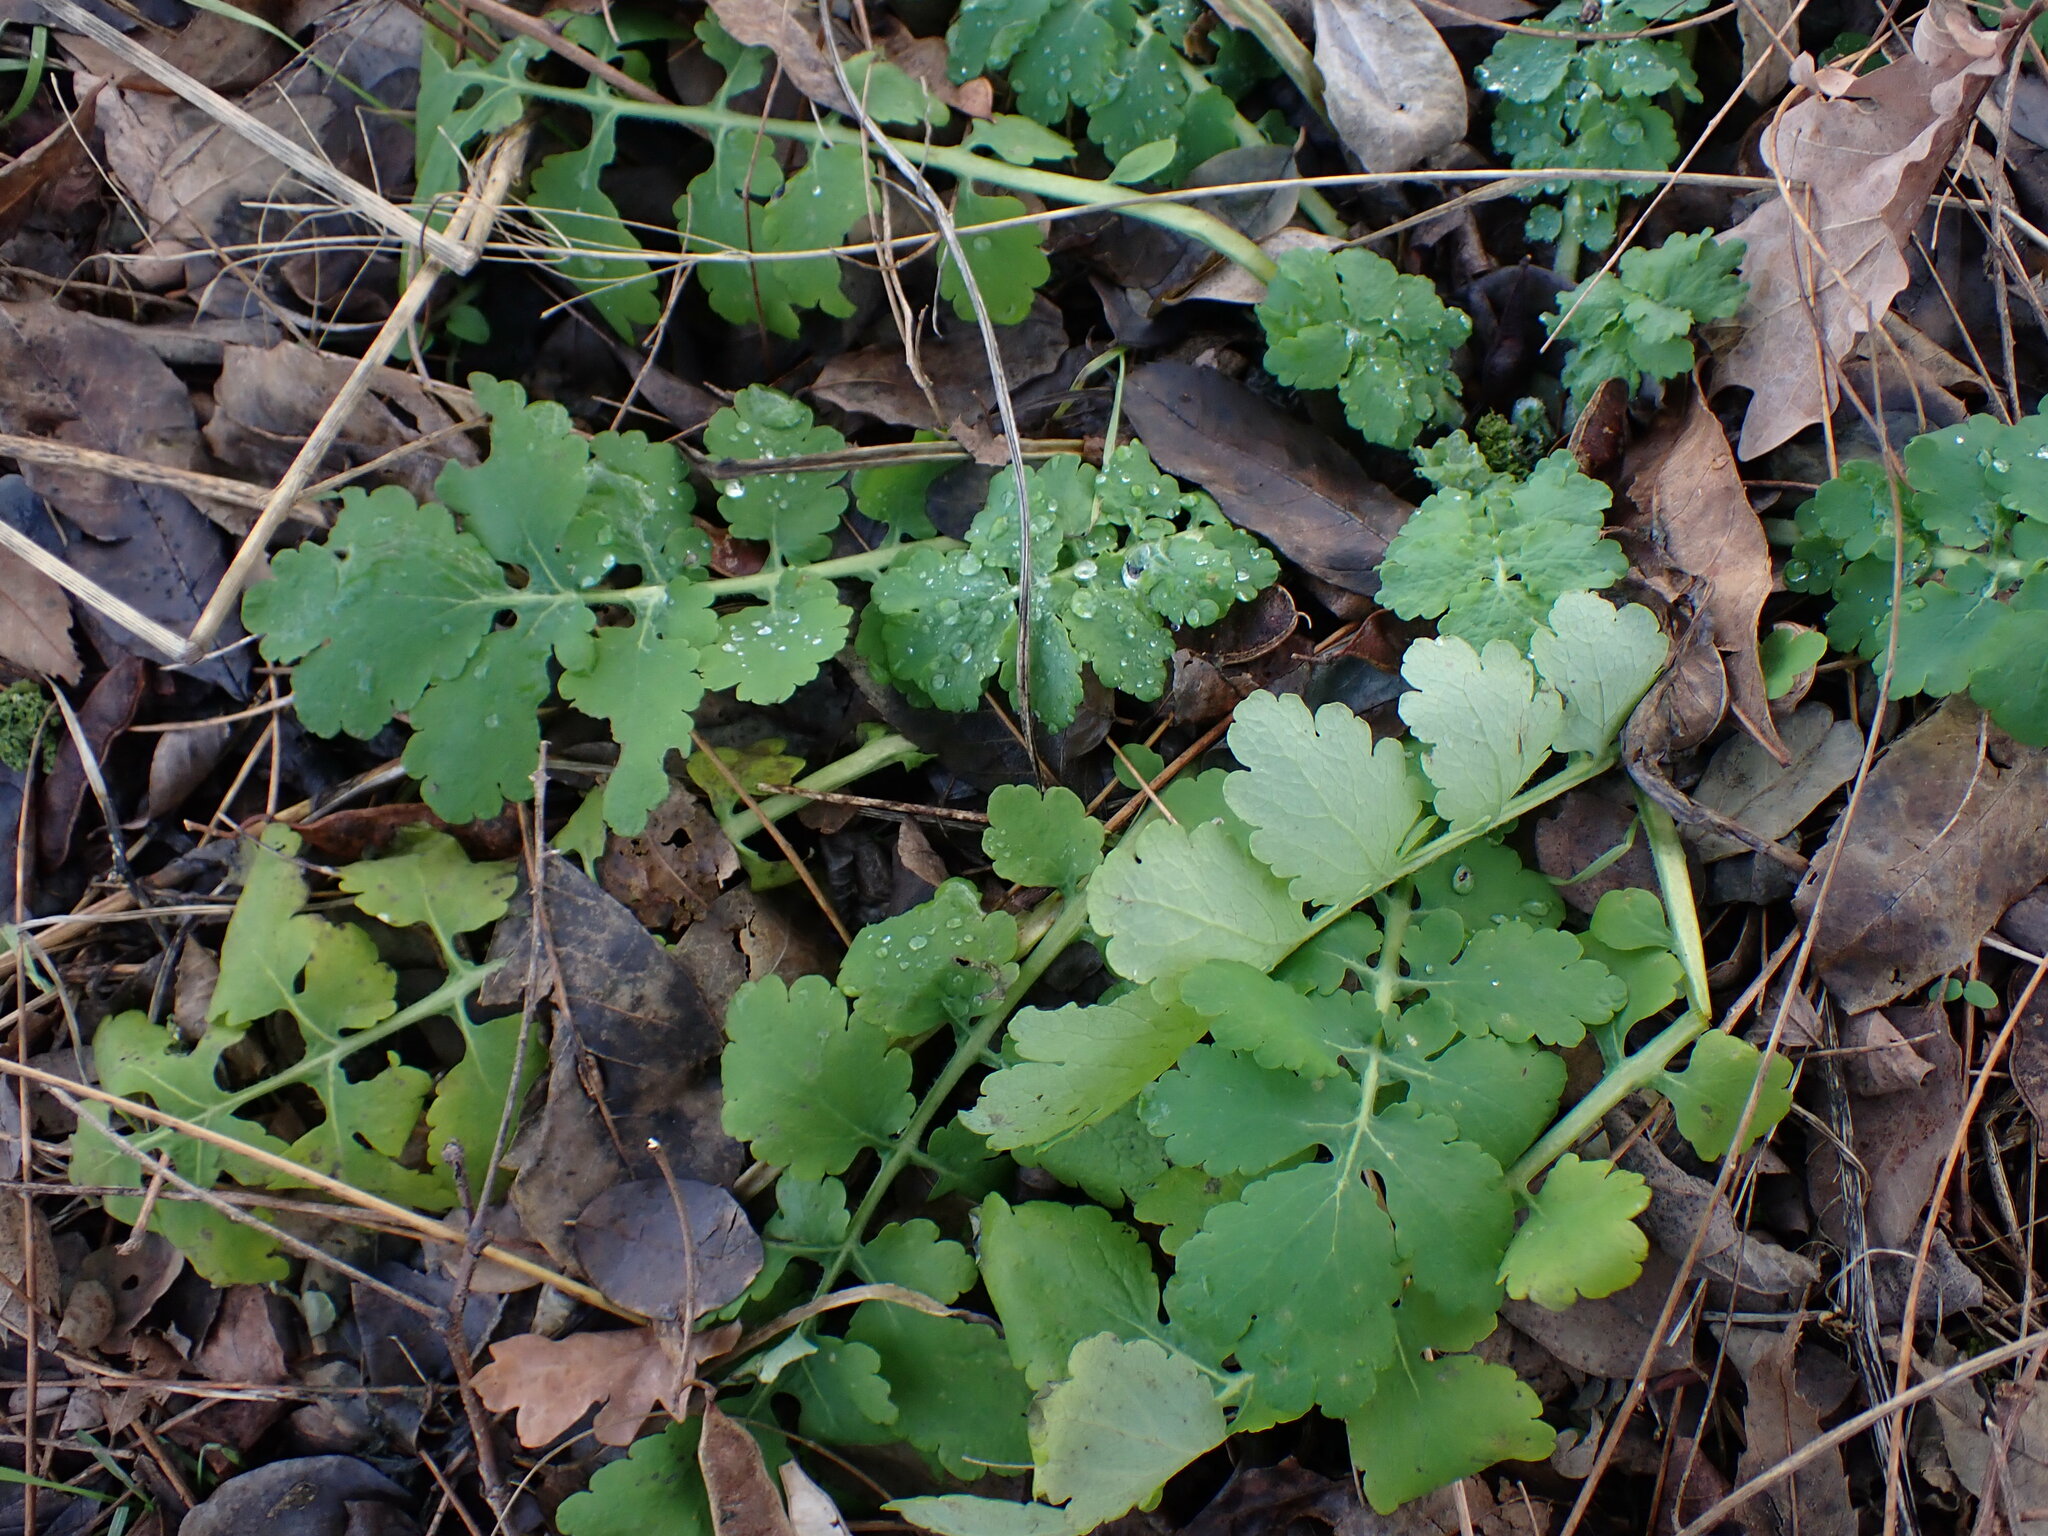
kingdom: Plantae
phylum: Tracheophyta
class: Magnoliopsida
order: Ranunculales
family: Papaveraceae
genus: Chelidonium
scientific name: Chelidonium majus
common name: Greater celandine
